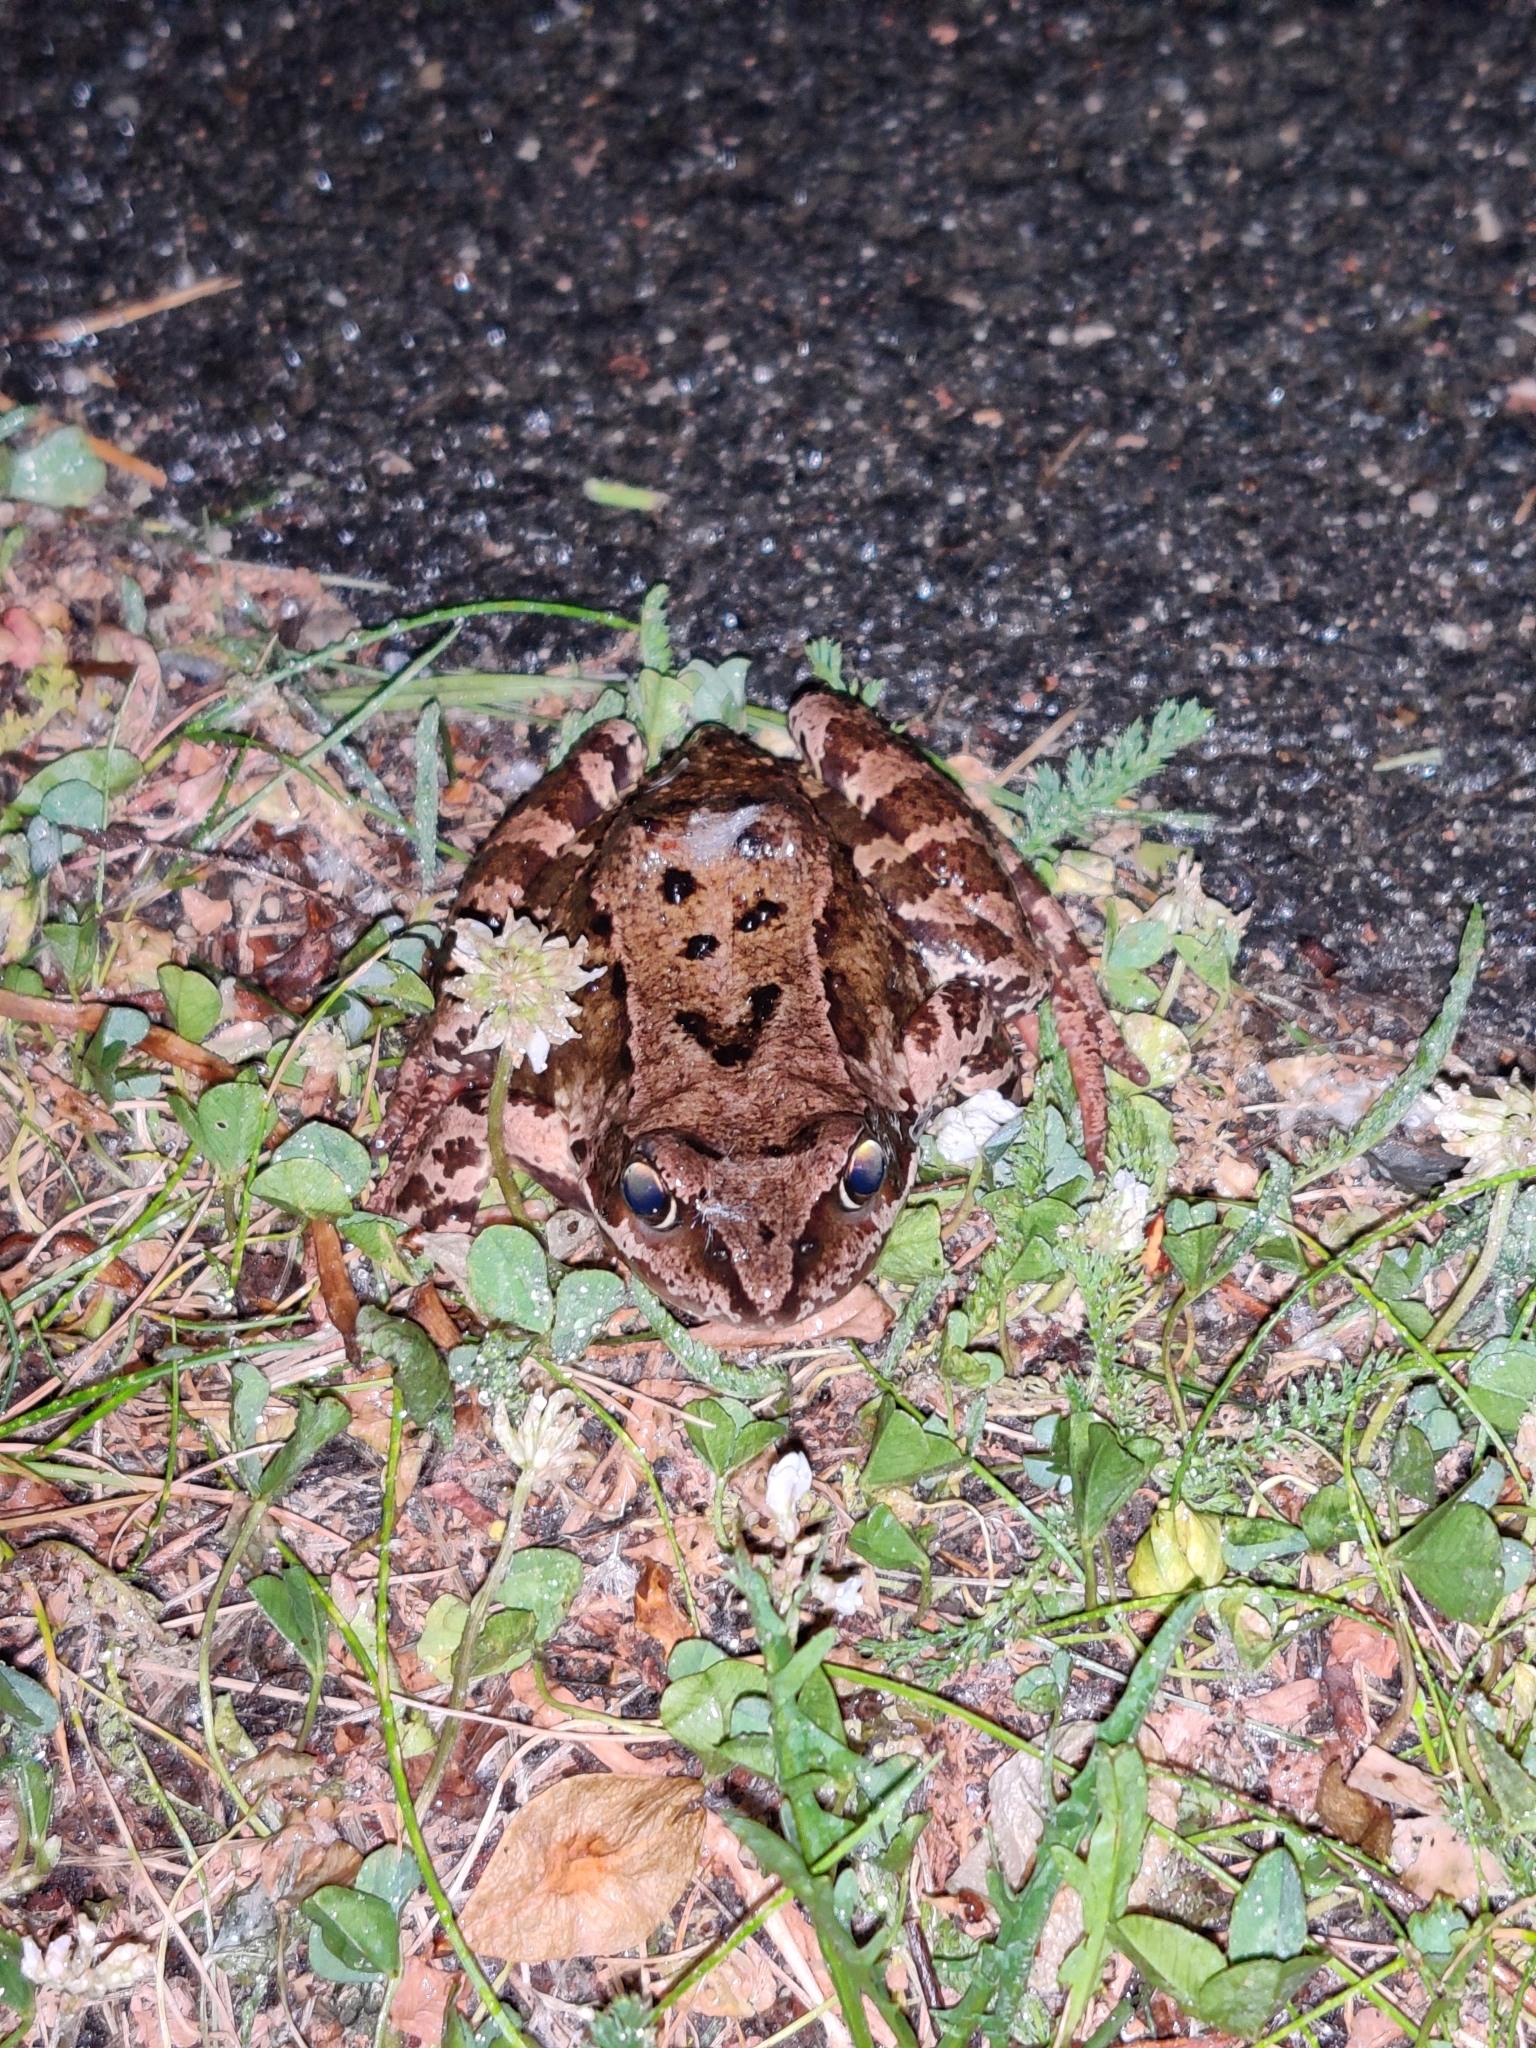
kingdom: Animalia
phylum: Chordata
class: Amphibia
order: Anura
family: Ranidae
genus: Rana
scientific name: Rana temporaria
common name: Common frog
